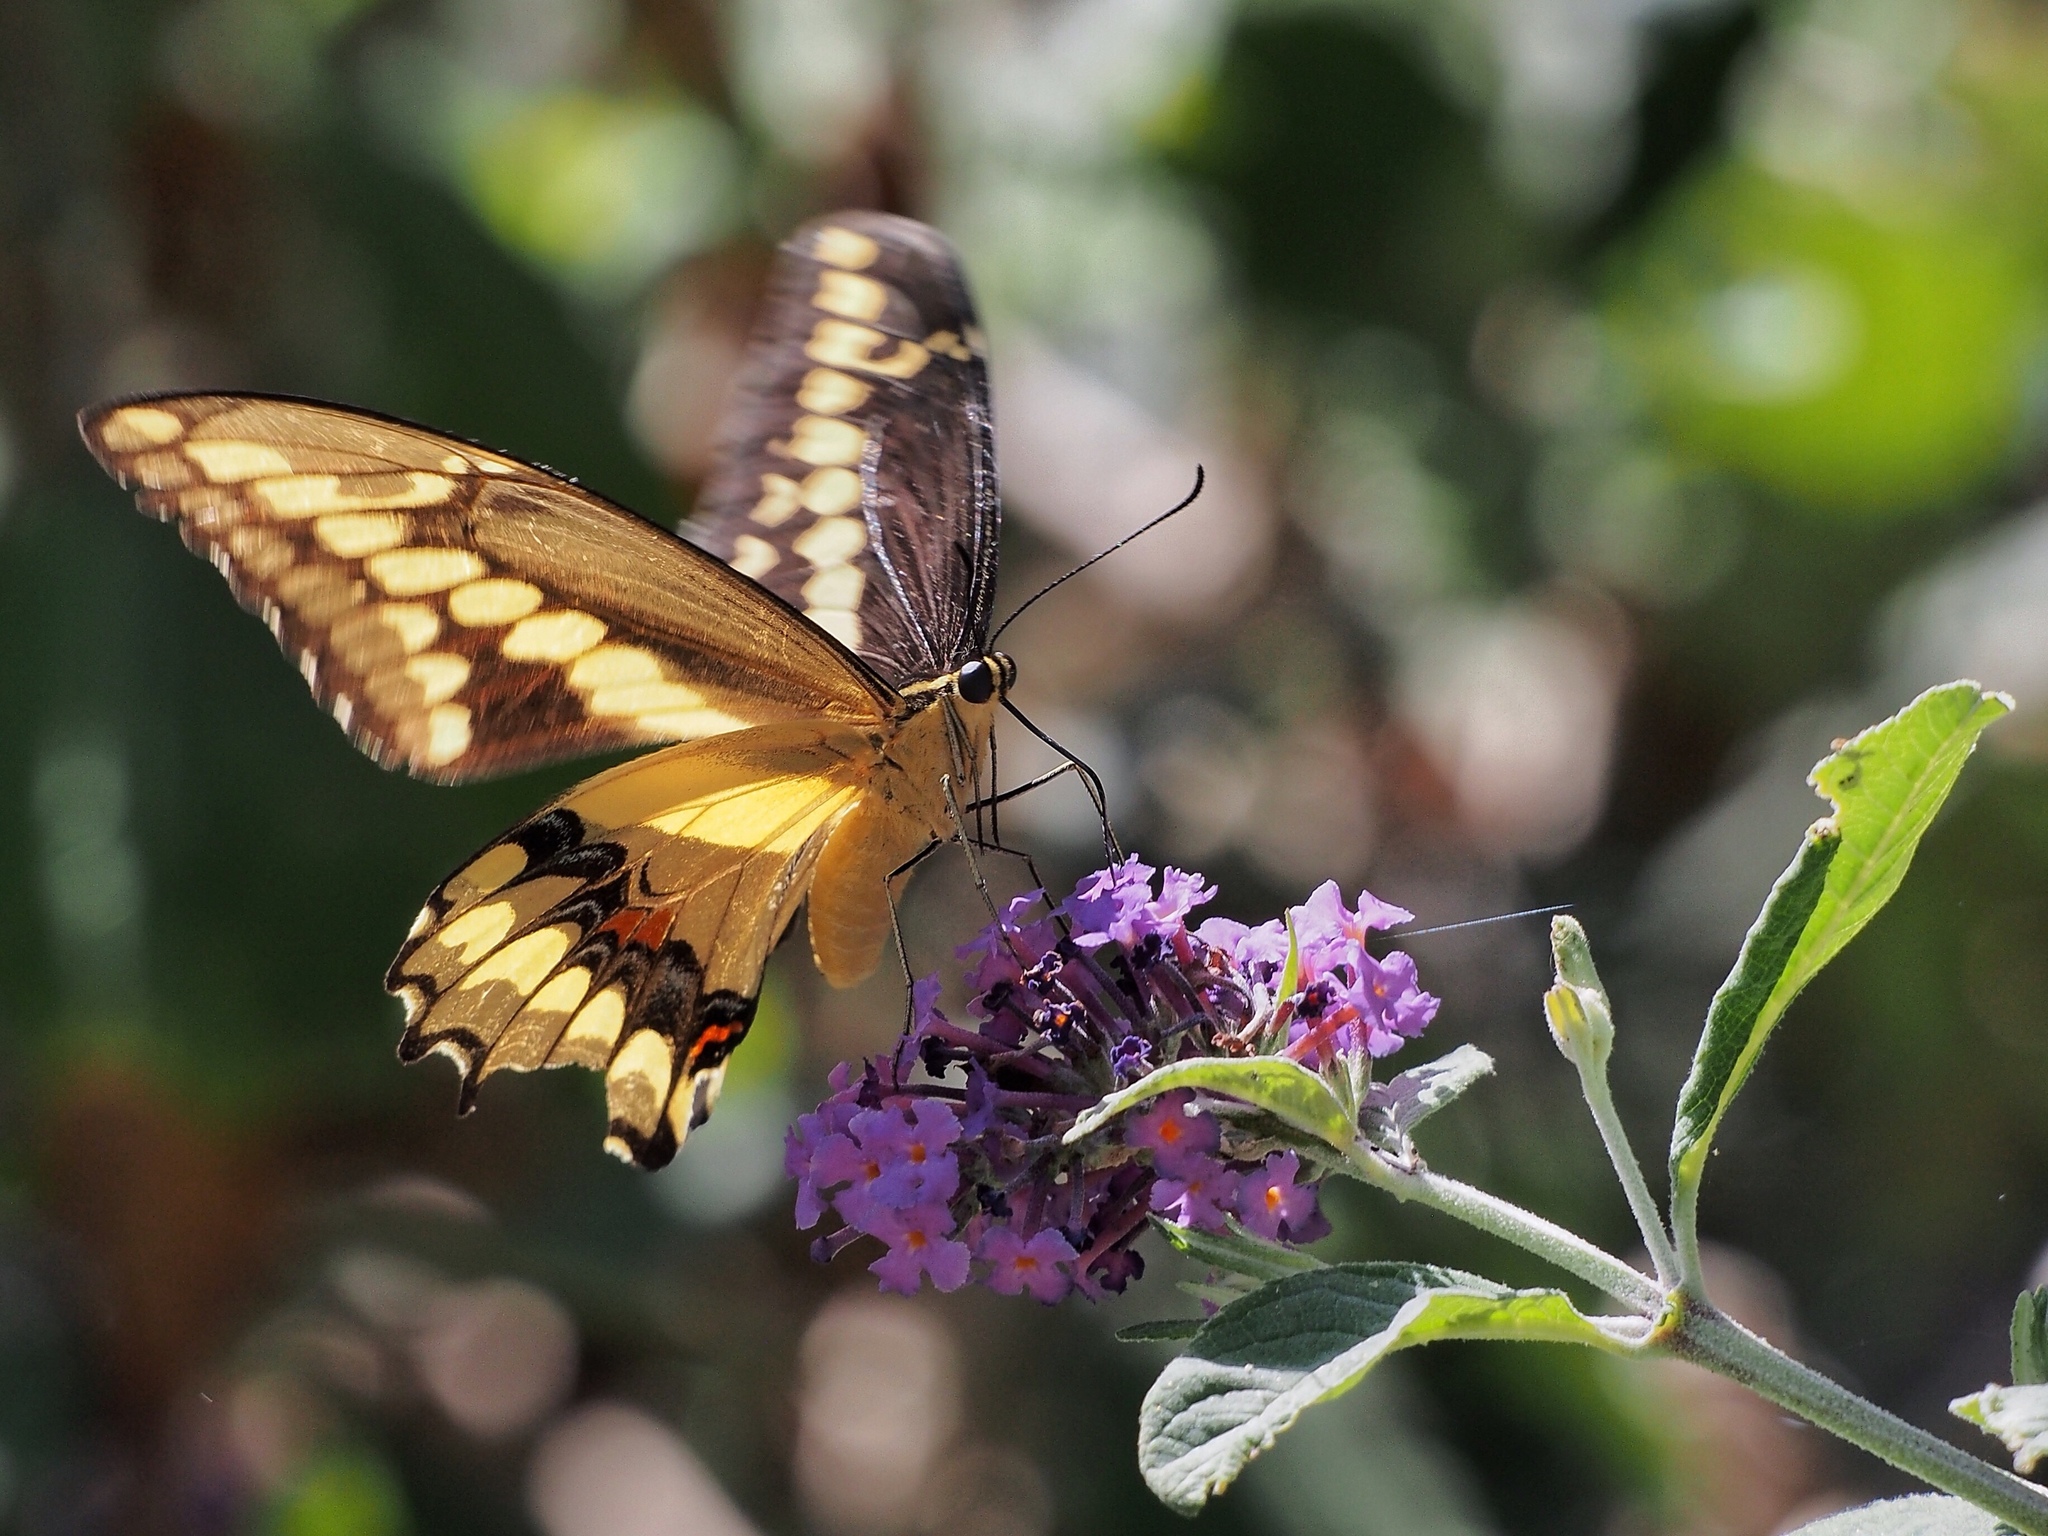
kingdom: Animalia
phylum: Arthropoda
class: Insecta
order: Lepidoptera
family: Papilionidae
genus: Papilio
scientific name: Papilio rumiko
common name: Western giant swallowtail
